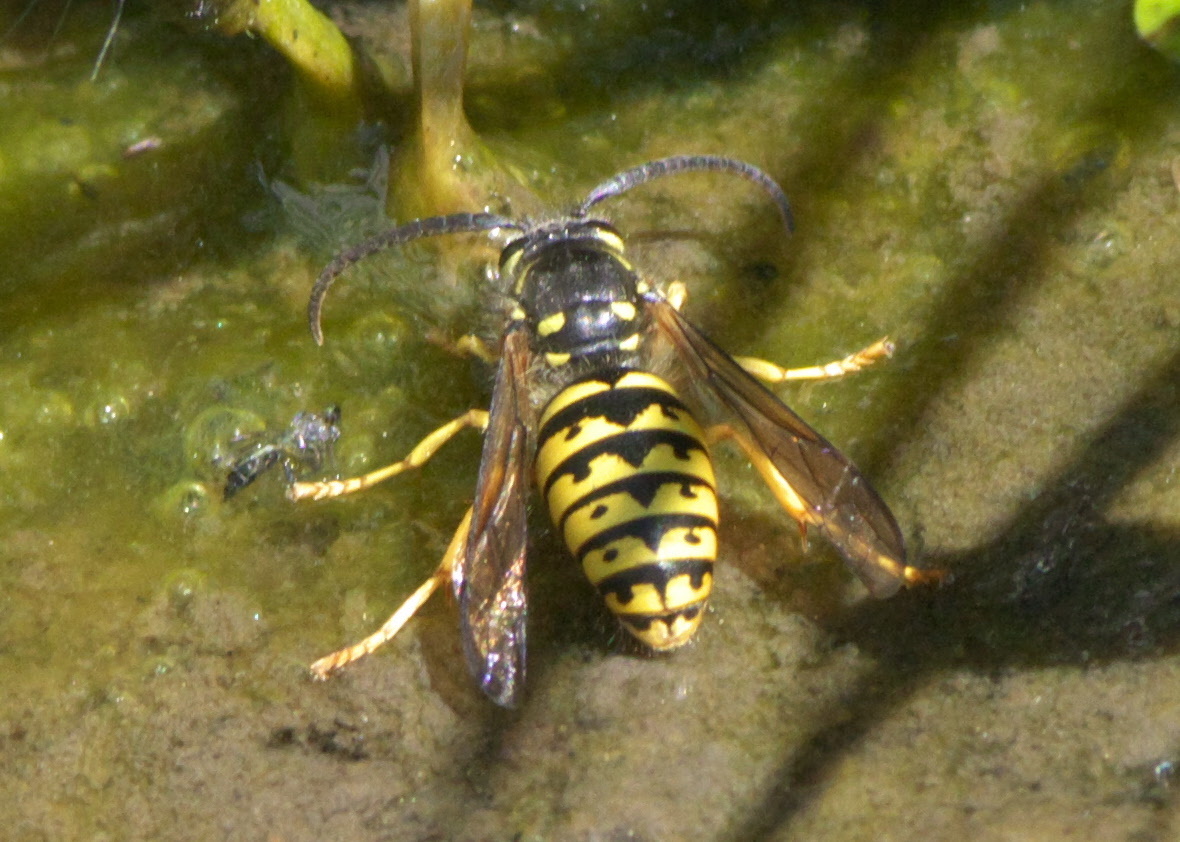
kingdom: Animalia
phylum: Arthropoda
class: Insecta
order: Hymenoptera
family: Vespidae
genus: Dolichovespula
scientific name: Dolichovespula arenaria
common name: Aerial yellowjacket
